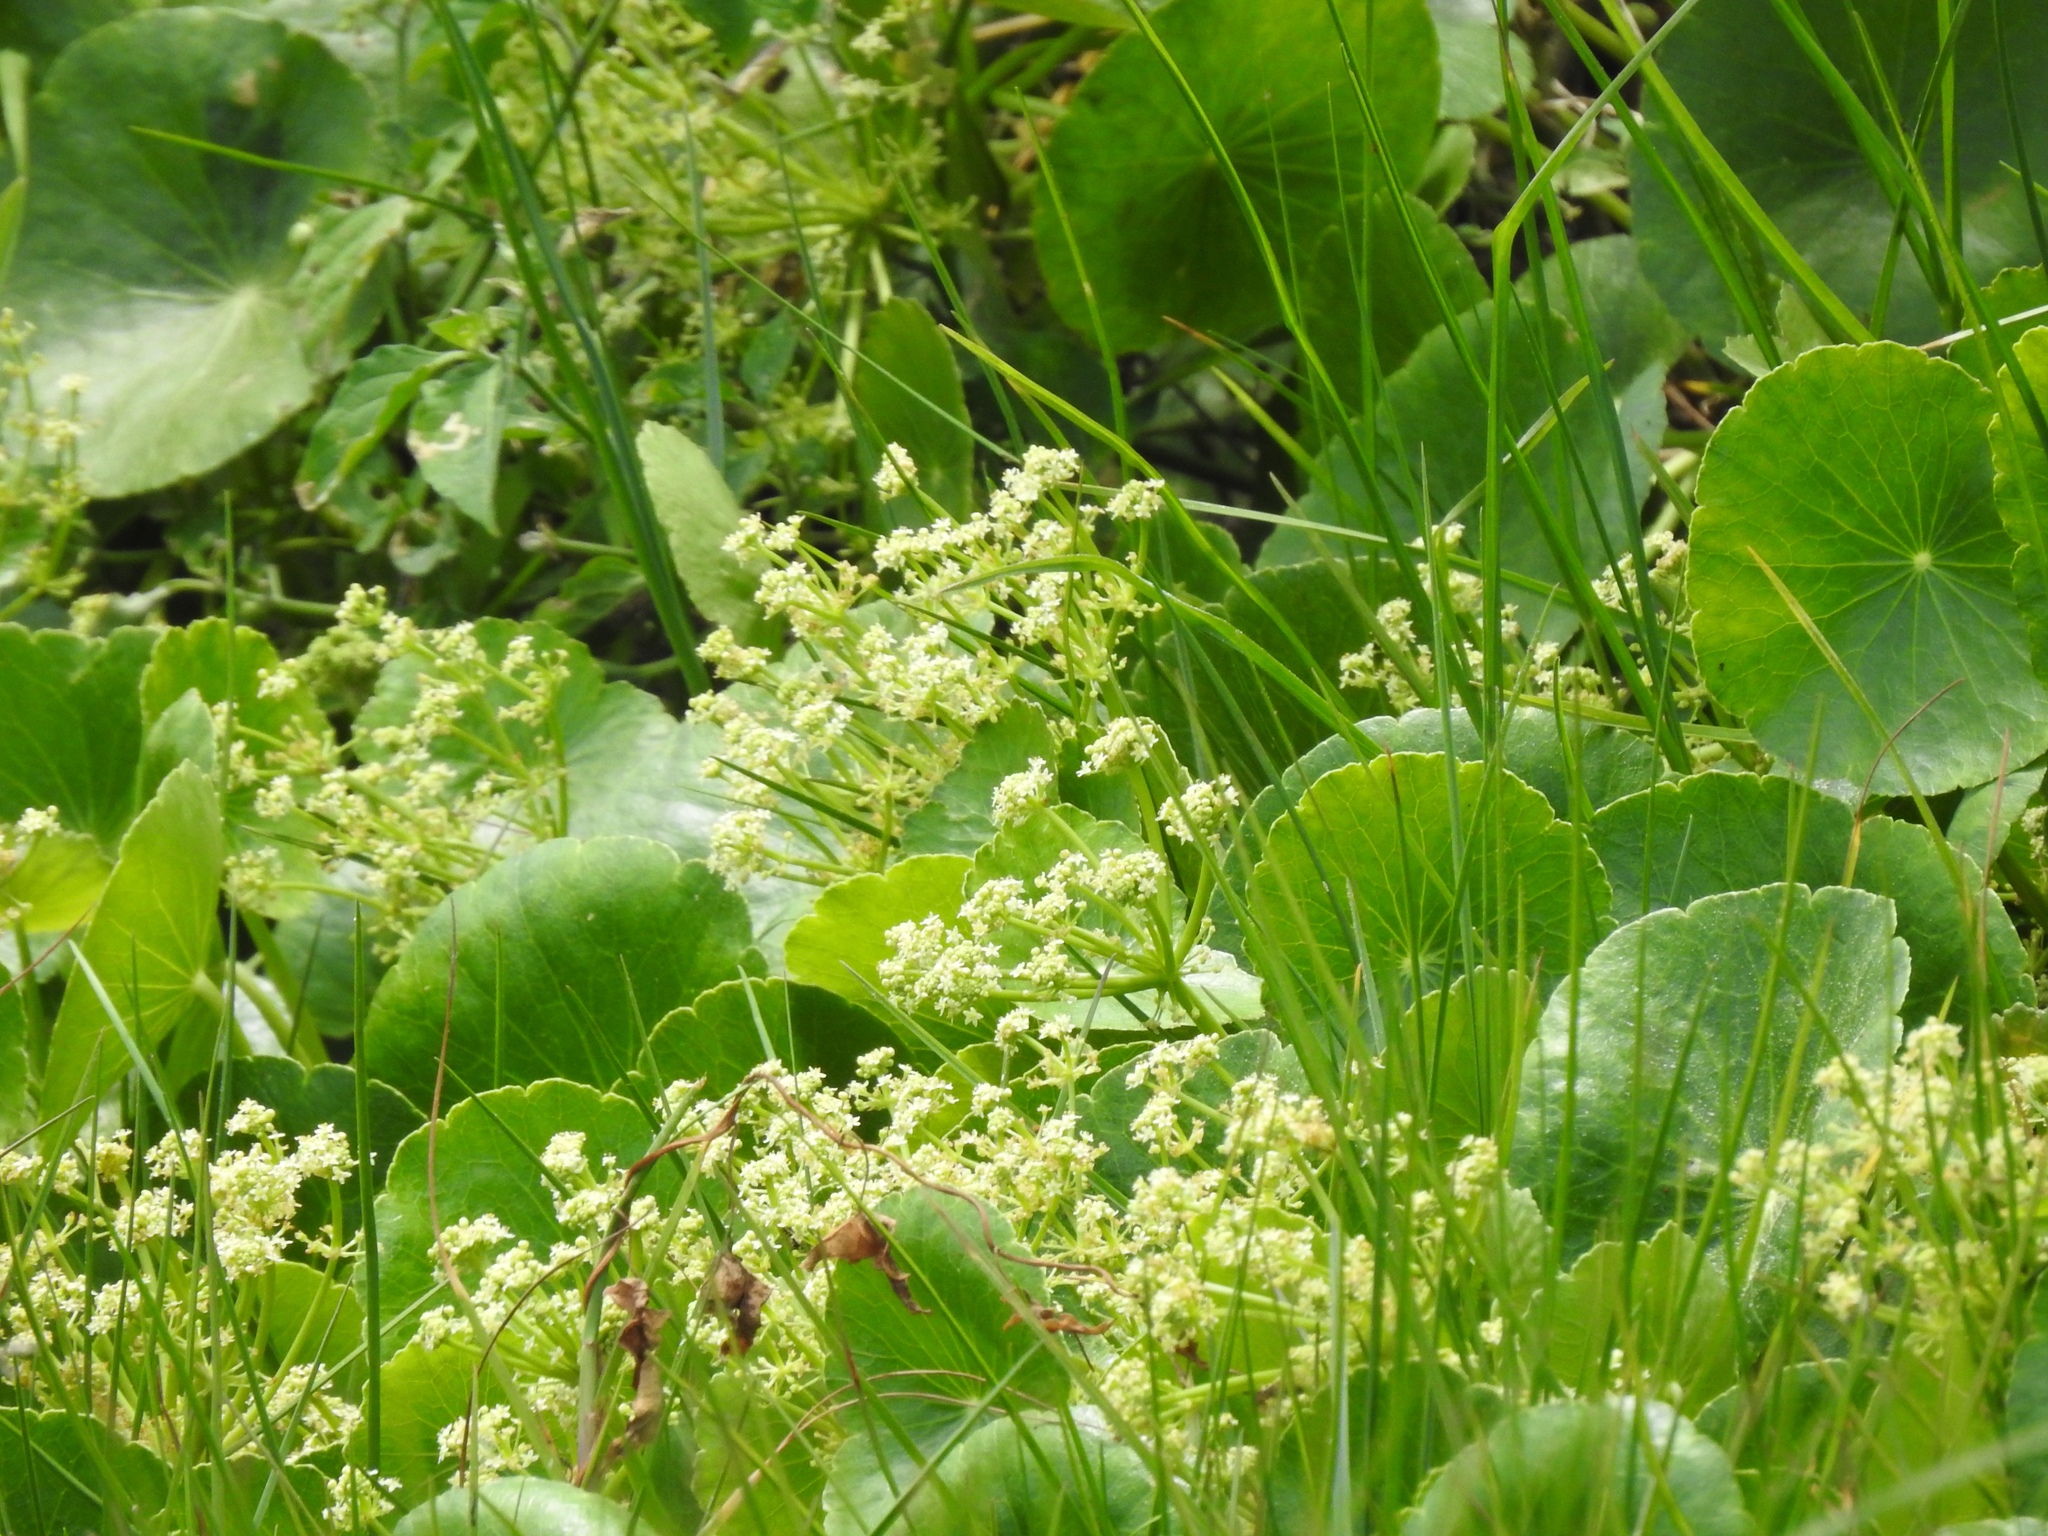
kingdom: Plantae
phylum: Tracheophyta
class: Magnoliopsida
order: Apiales
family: Araliaceae
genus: Hydrocotyle
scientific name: Hydrocotyle bonariensis
